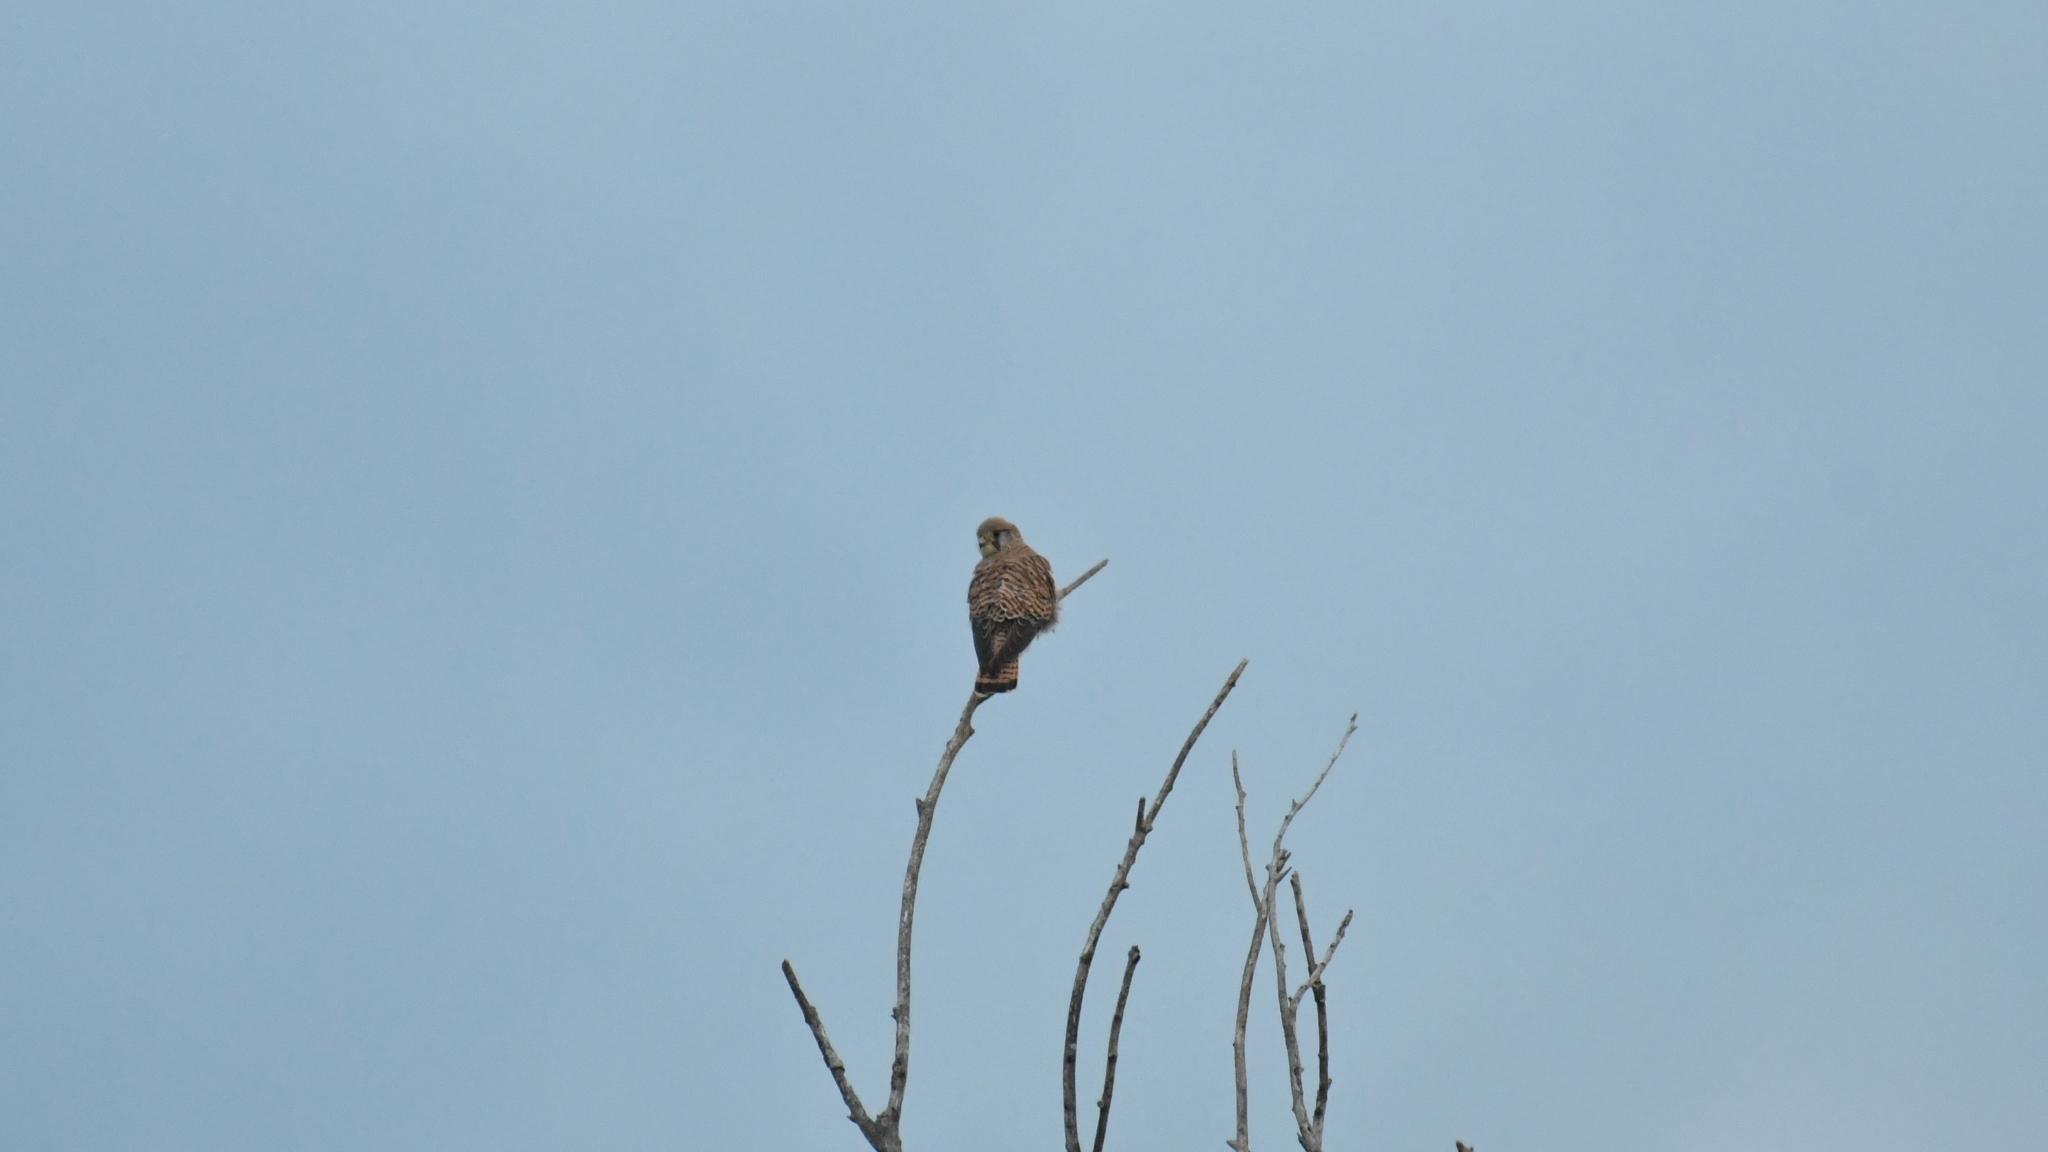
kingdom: Animalia
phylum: Chordata
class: Aves
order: Falconiformes
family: Falconidae
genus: Falco
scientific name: Falco tinnunculus
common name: Common kestrel
